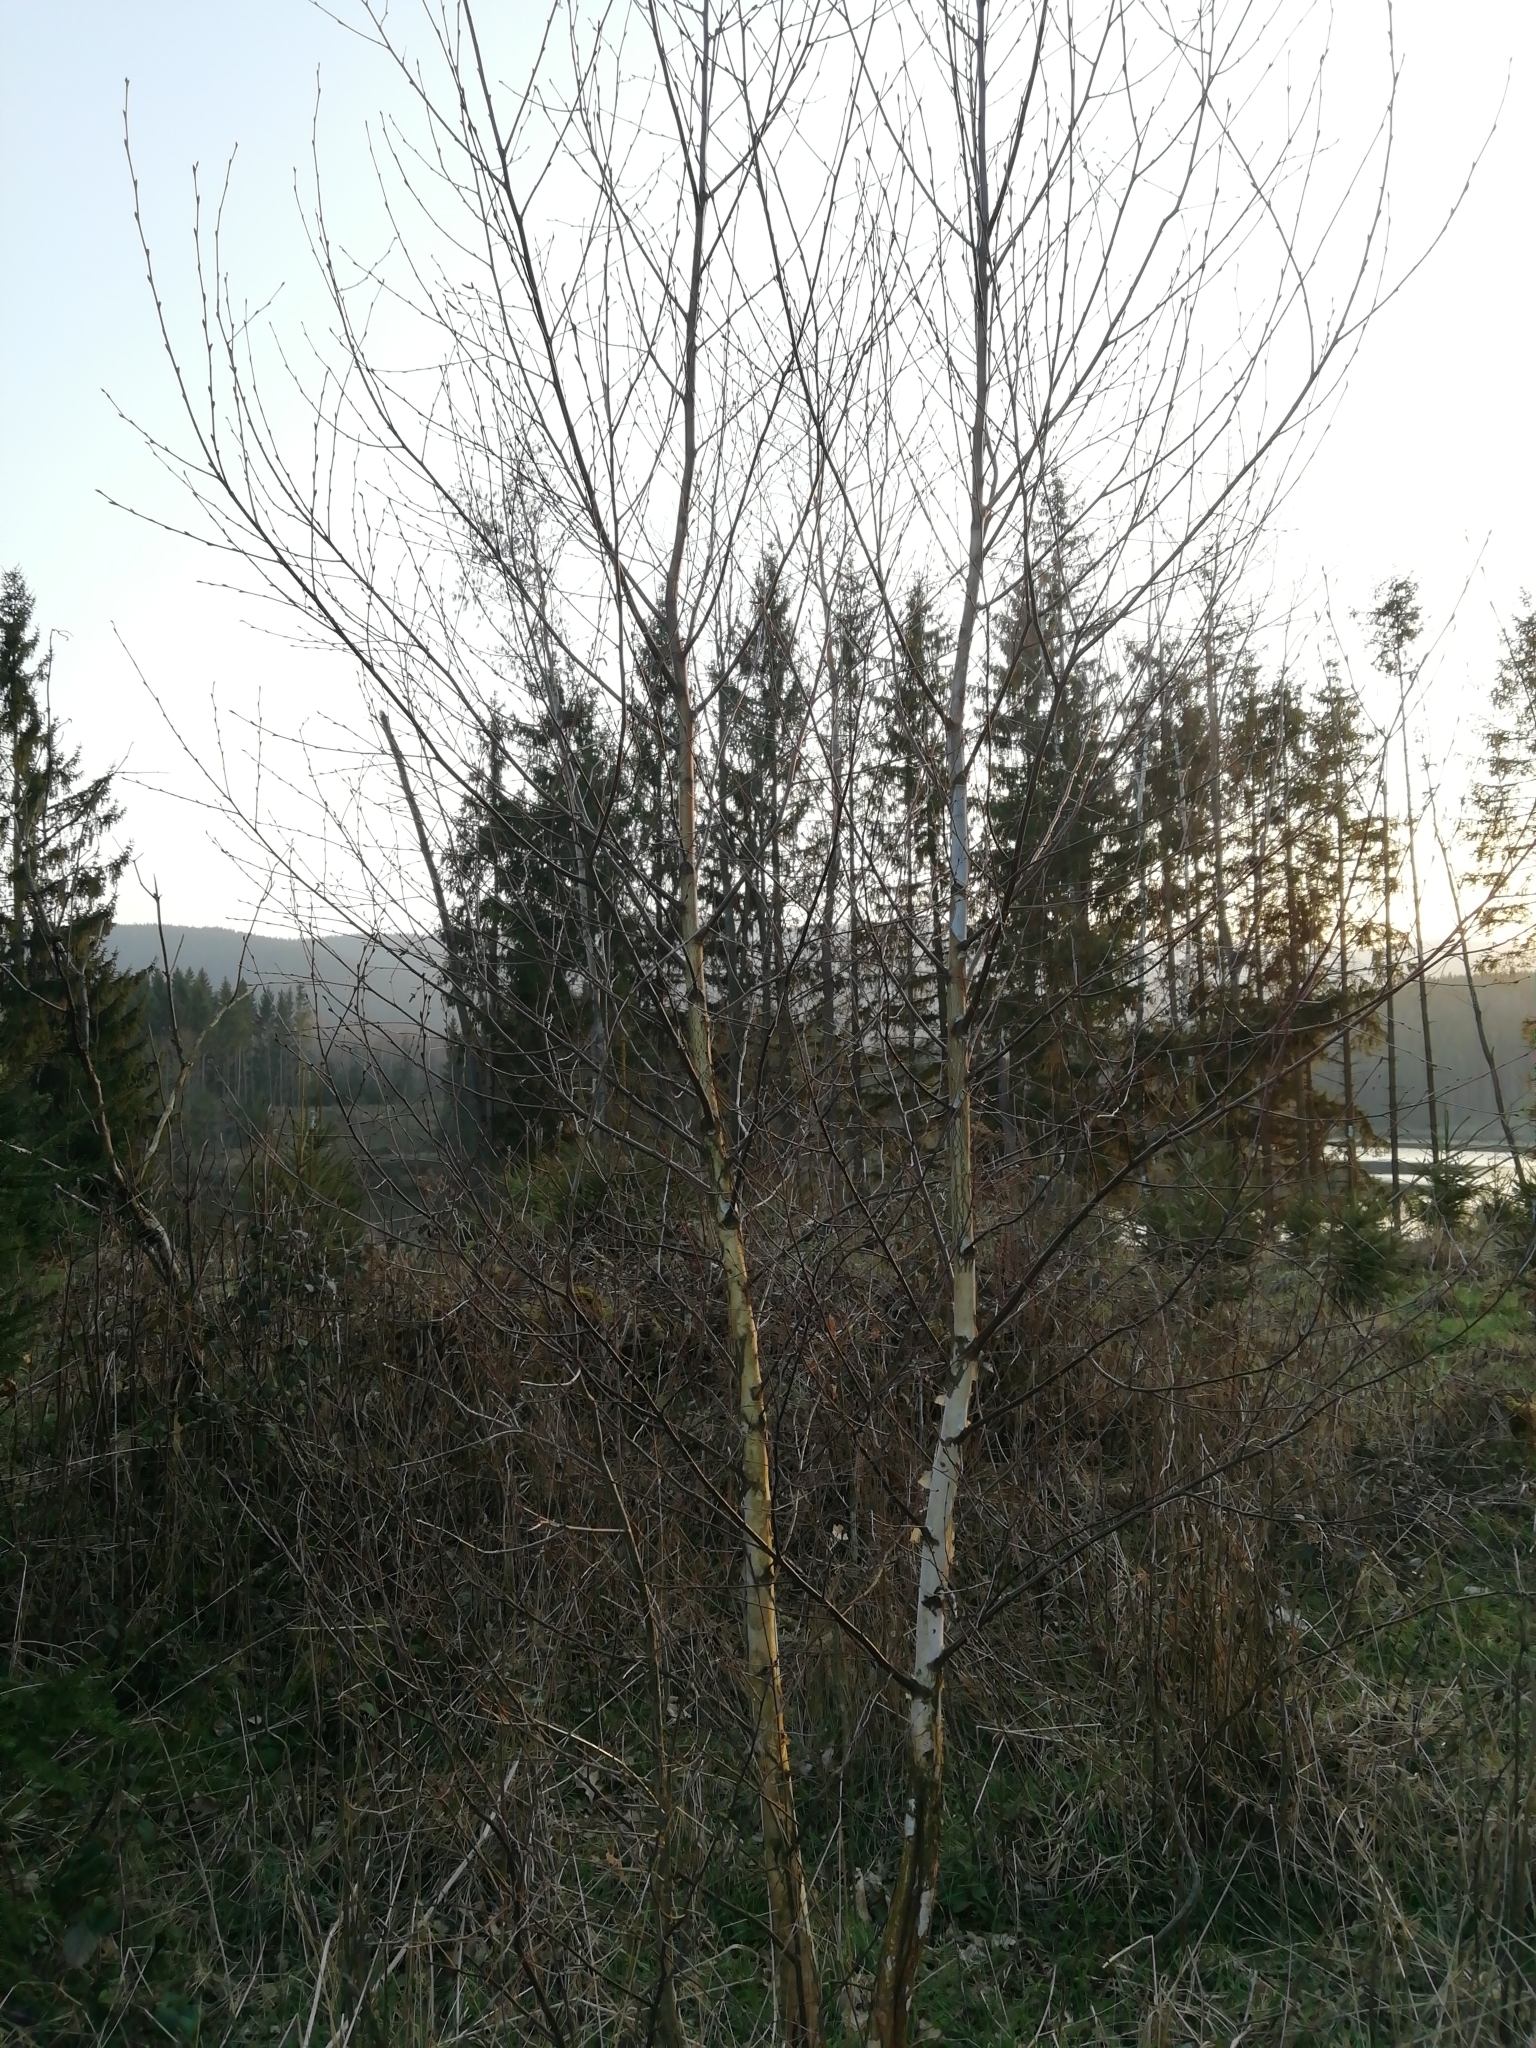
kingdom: Plantae
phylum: Tracheophyta
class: Magnoliopsida
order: Fagales
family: Betulaceae
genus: Betula
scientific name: Betula pendula
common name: Silver birch
